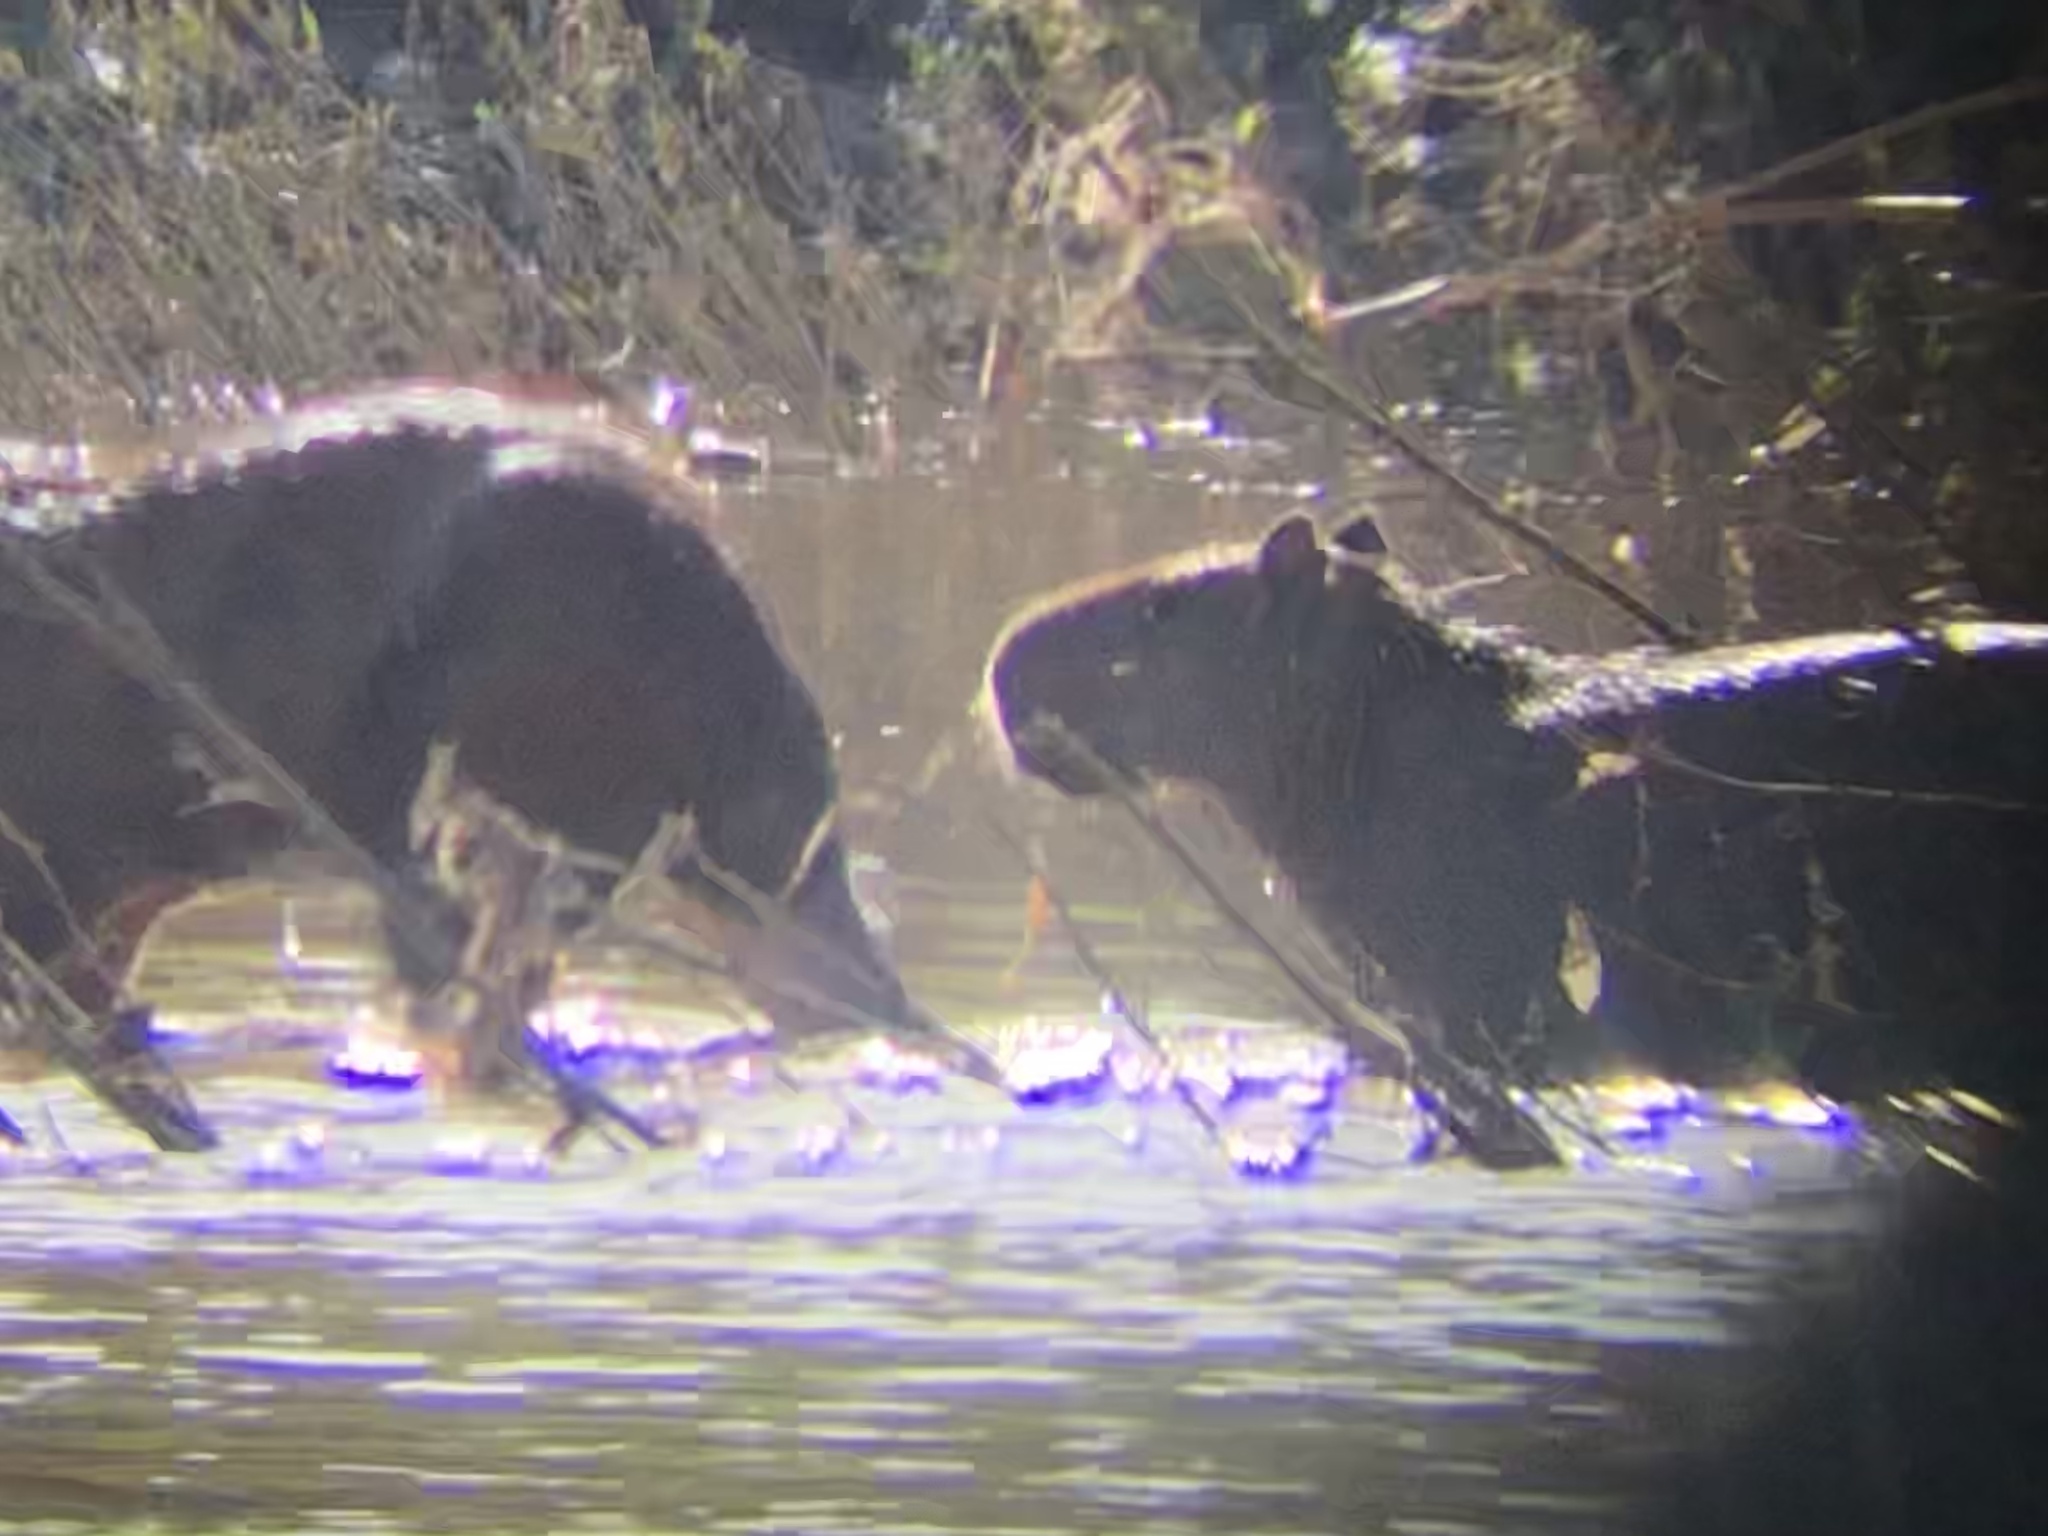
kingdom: Animalia
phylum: Chordata
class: Mammalia
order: Rodentia
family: Caviidae
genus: Hydrochoerus
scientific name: Hydrochoerus hydrochaeris
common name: Capybara
